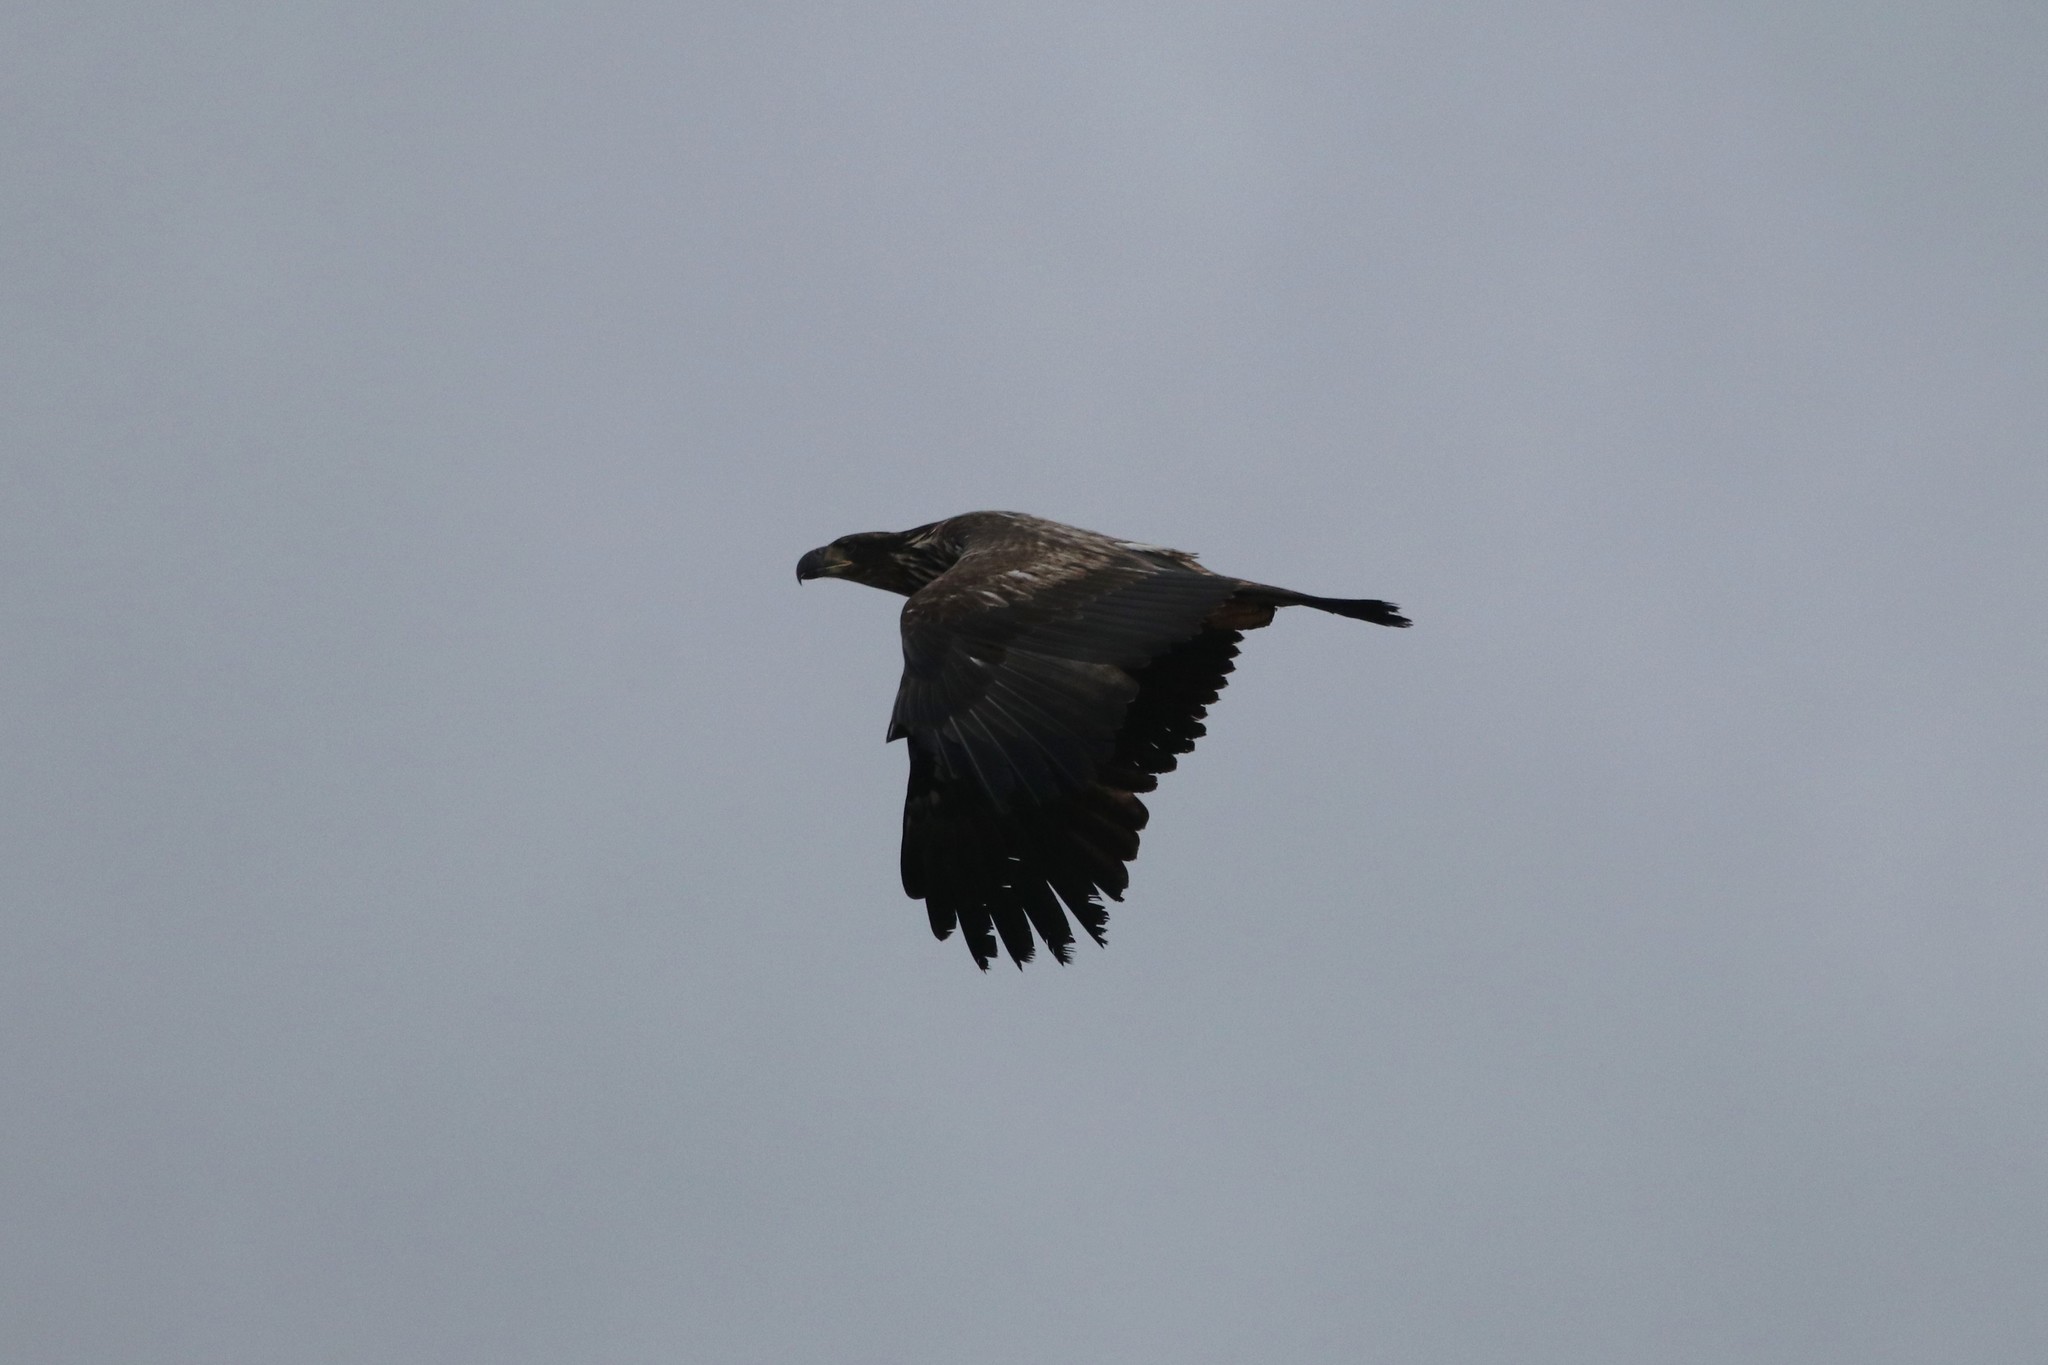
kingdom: Animalia
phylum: Chordata
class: Aves
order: Accipitriformes
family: Accipitridae
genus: Haliaeetus
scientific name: Haliaeetus leucocephalus
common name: Bald eagle
